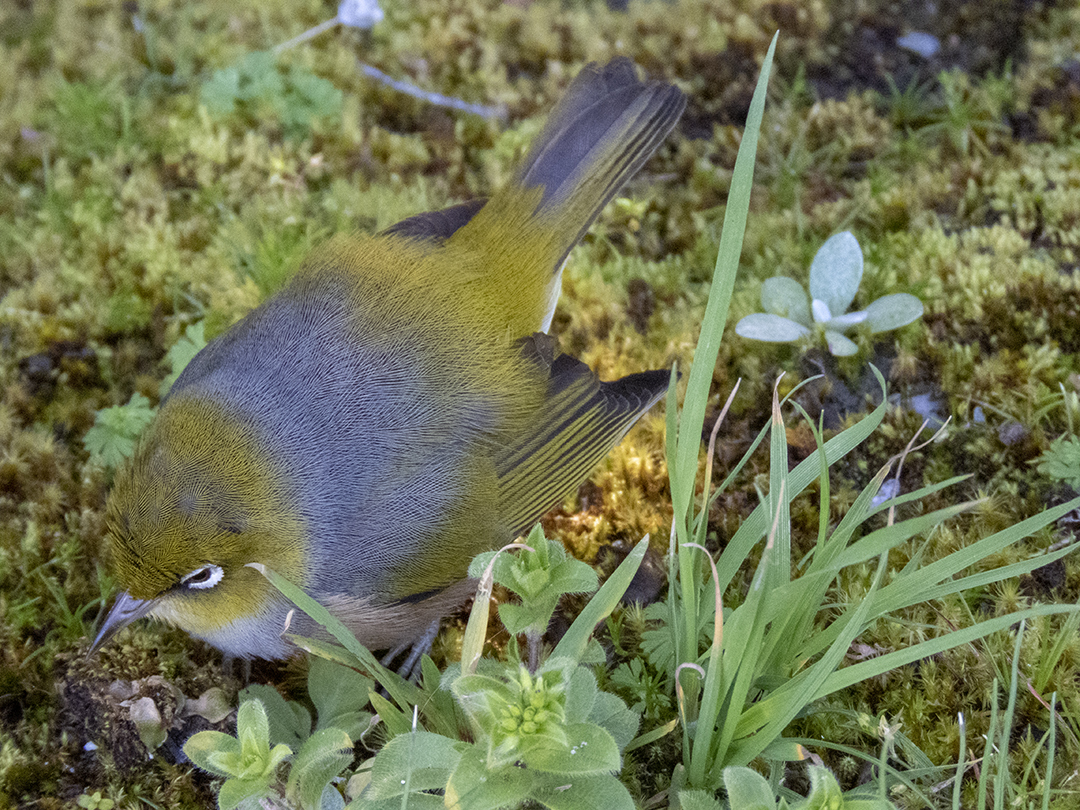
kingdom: Animalia
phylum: Chordata
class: Aves
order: Passeriformes
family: Zosteropidae
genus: Zosterops
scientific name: Zosterops lateralis
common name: Silvereye
